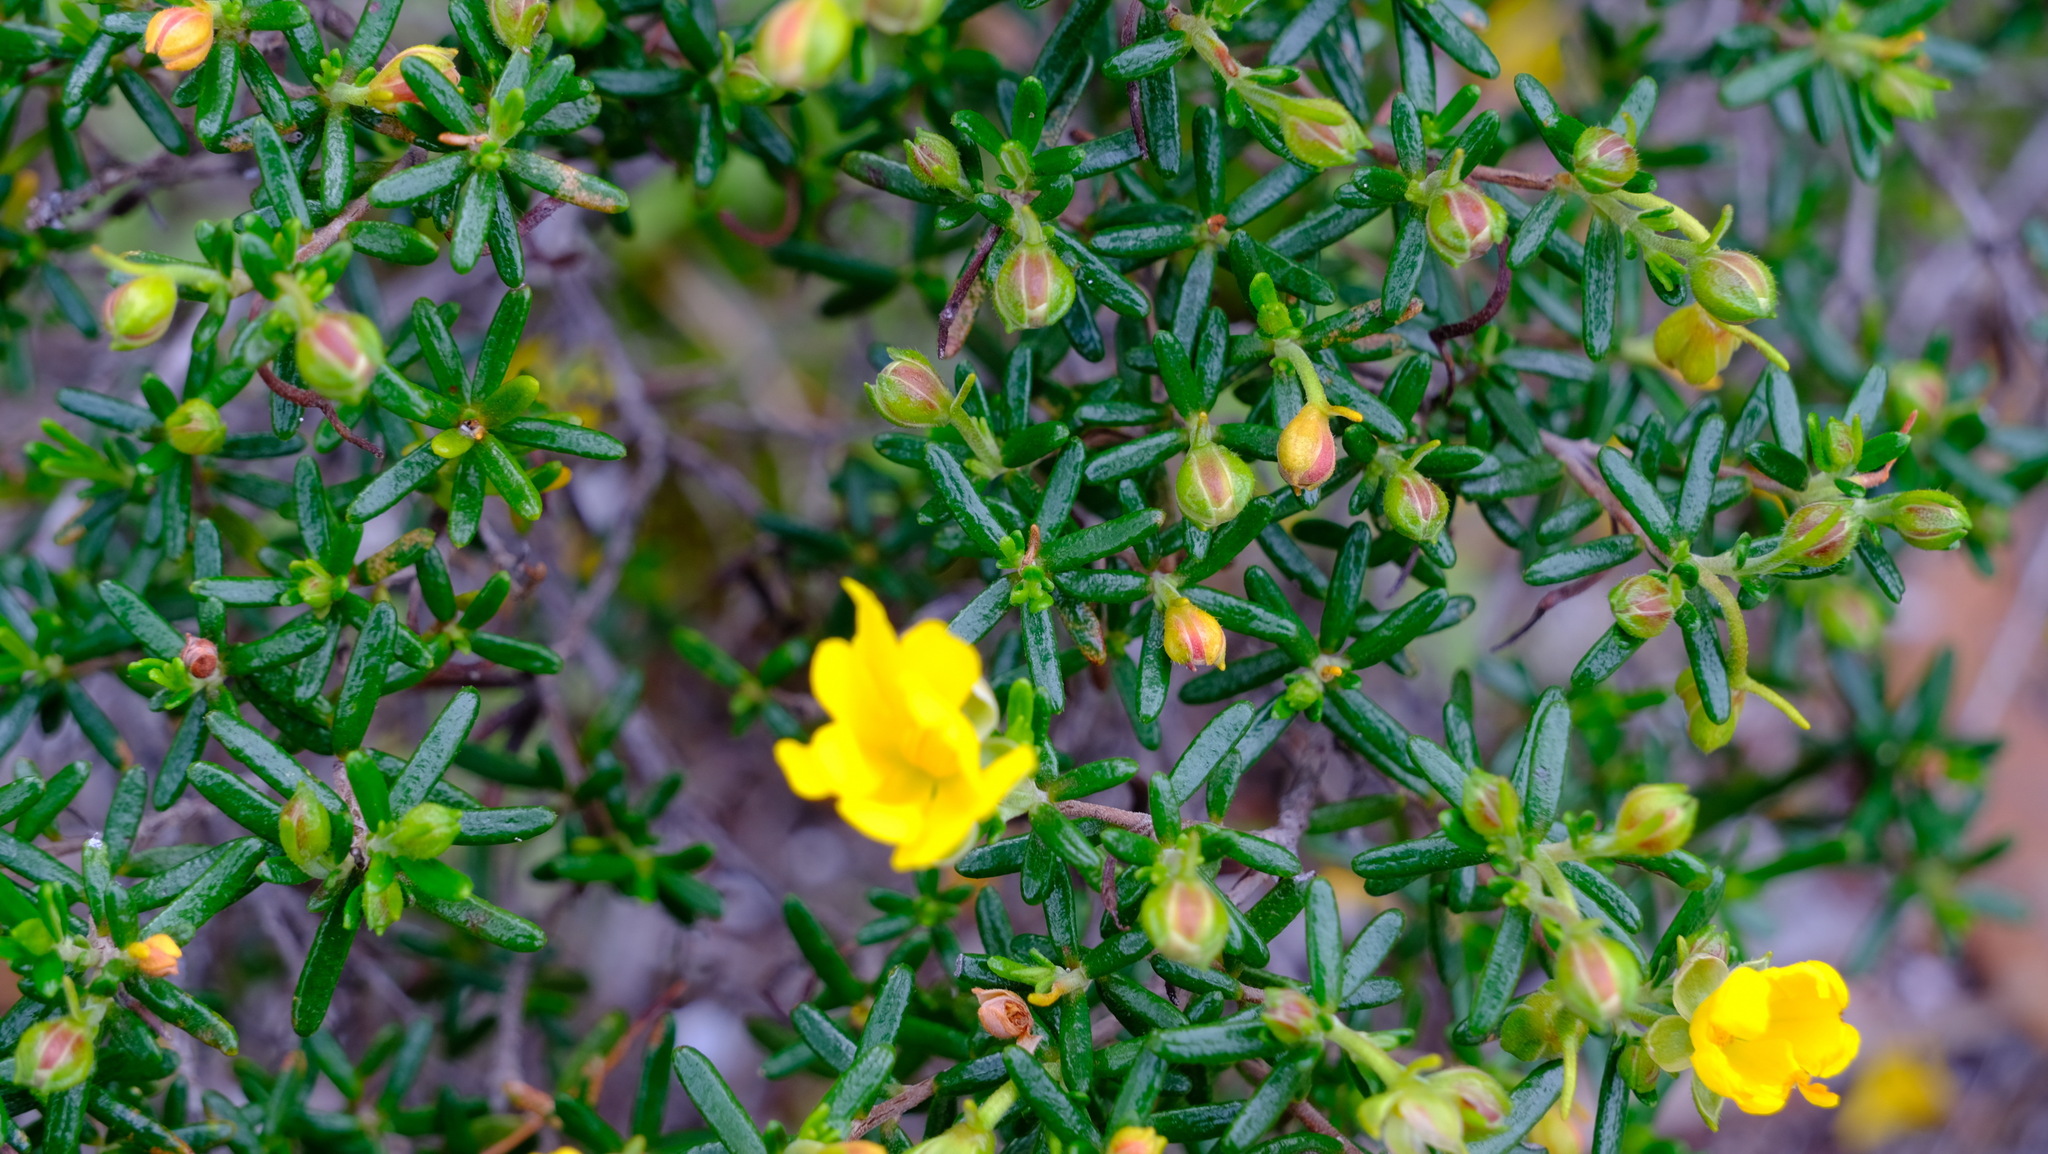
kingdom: Plantae
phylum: Tracheophyta
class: Magnoliopsida
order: Dilleniales
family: Dilleniaceae
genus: Hibbertia
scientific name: Hibbertia hypericoides
